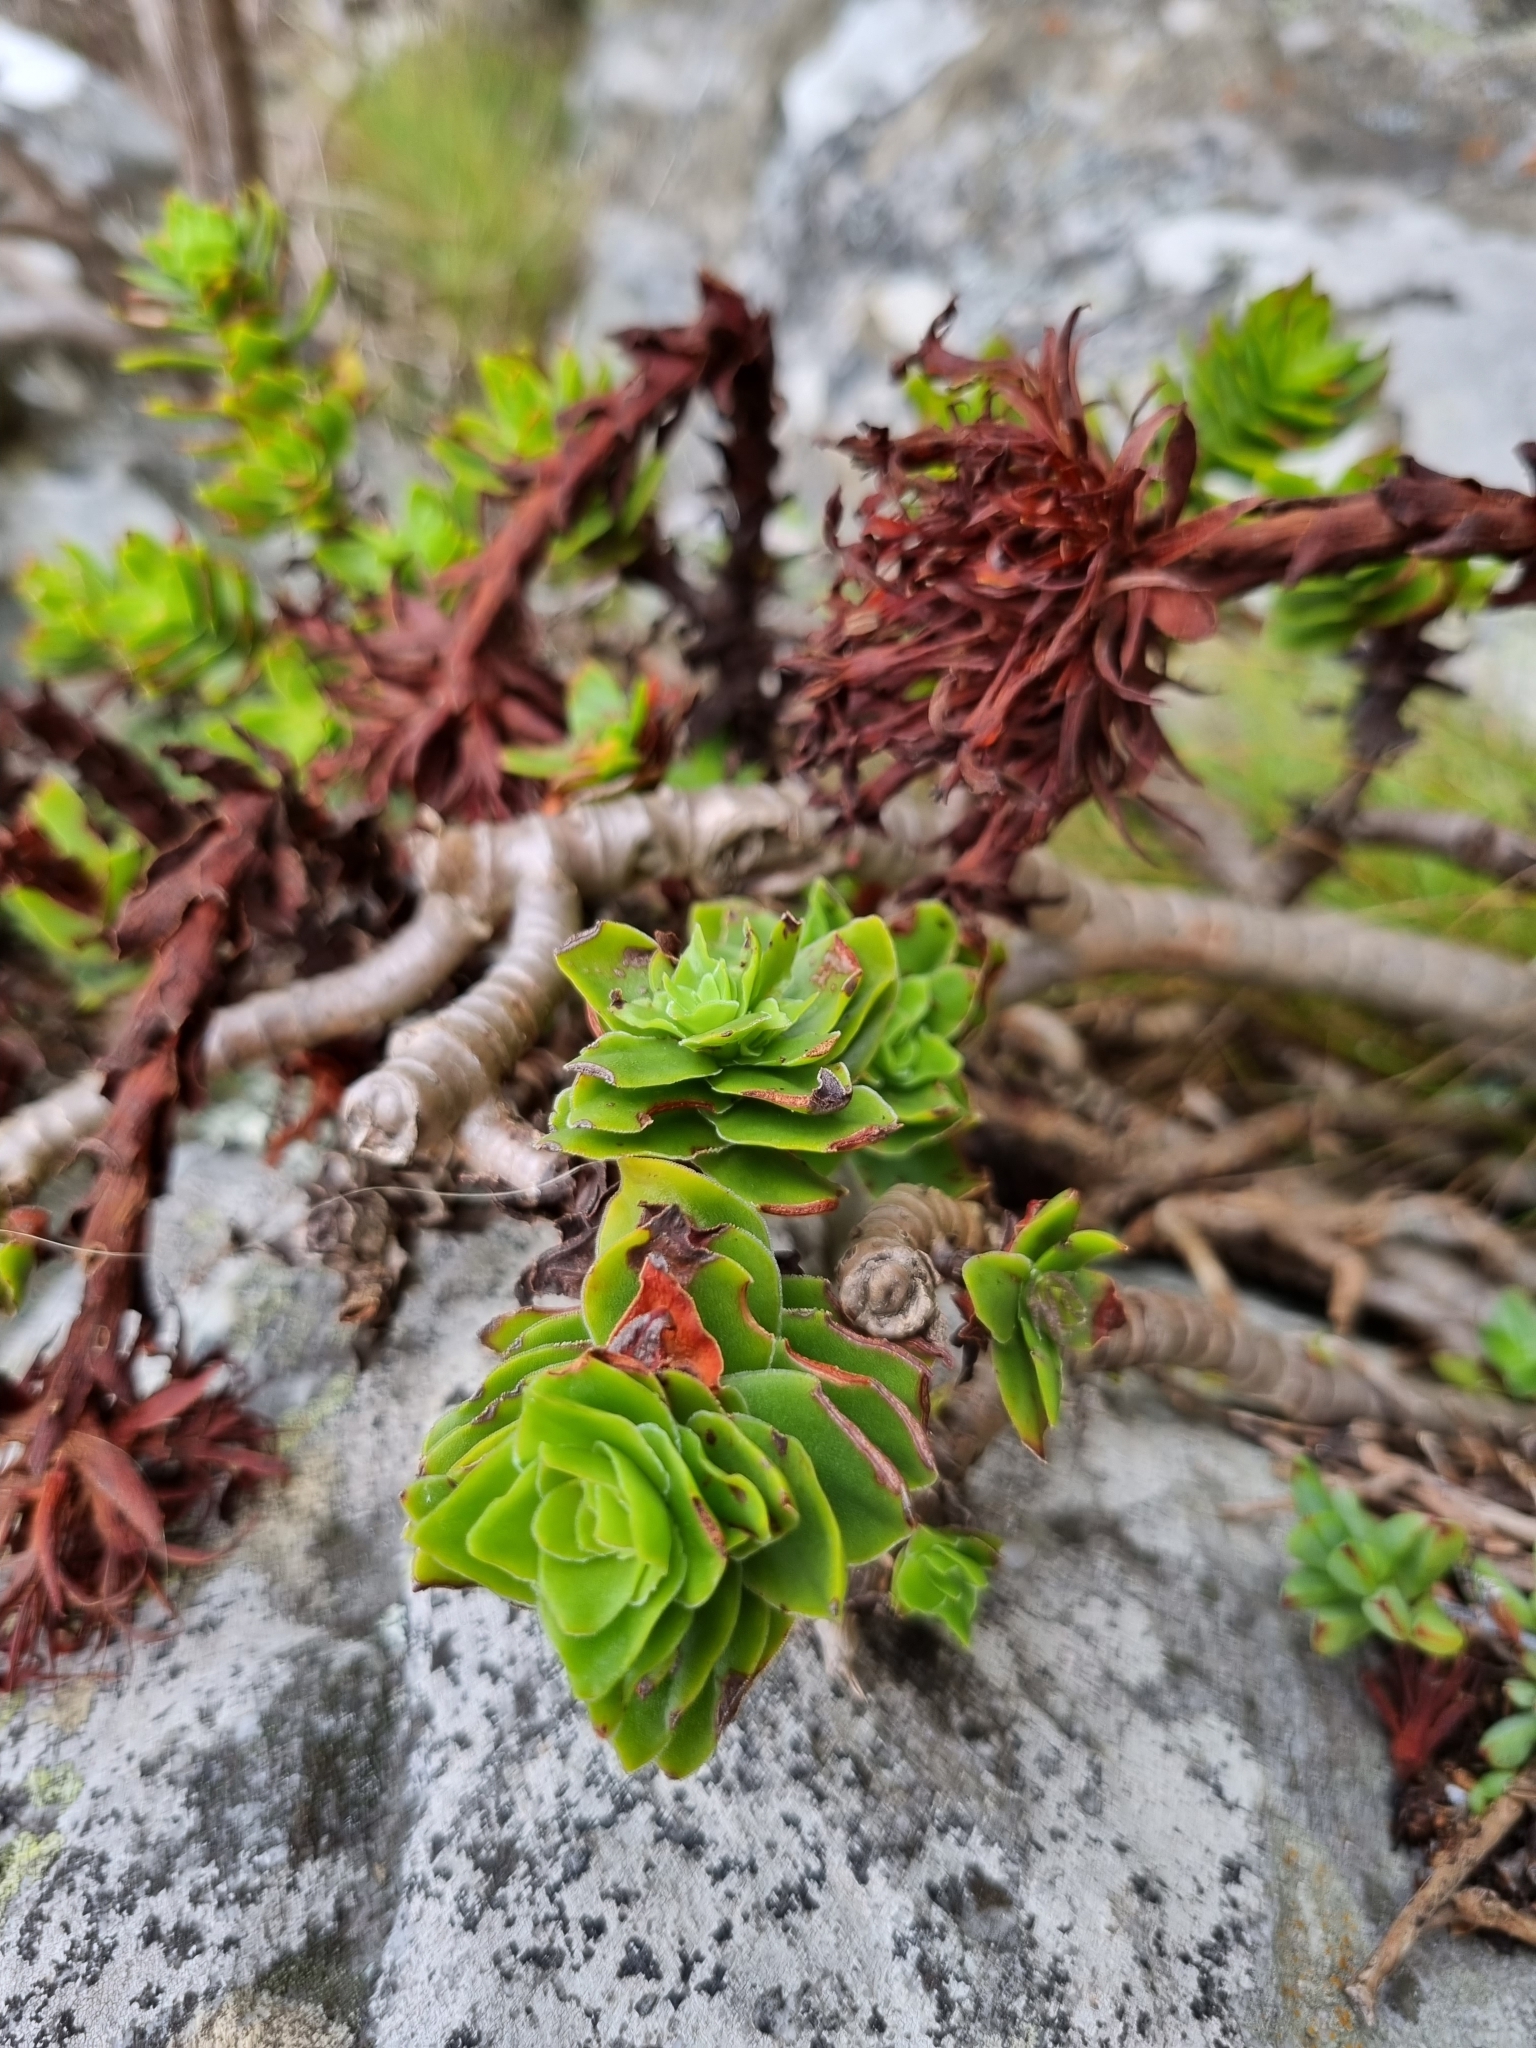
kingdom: Plantae
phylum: Tracheophyta
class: Magnoliopsida
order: Saxifragales
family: Crassulaceae
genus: Crassula
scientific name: Crassula coccinea
